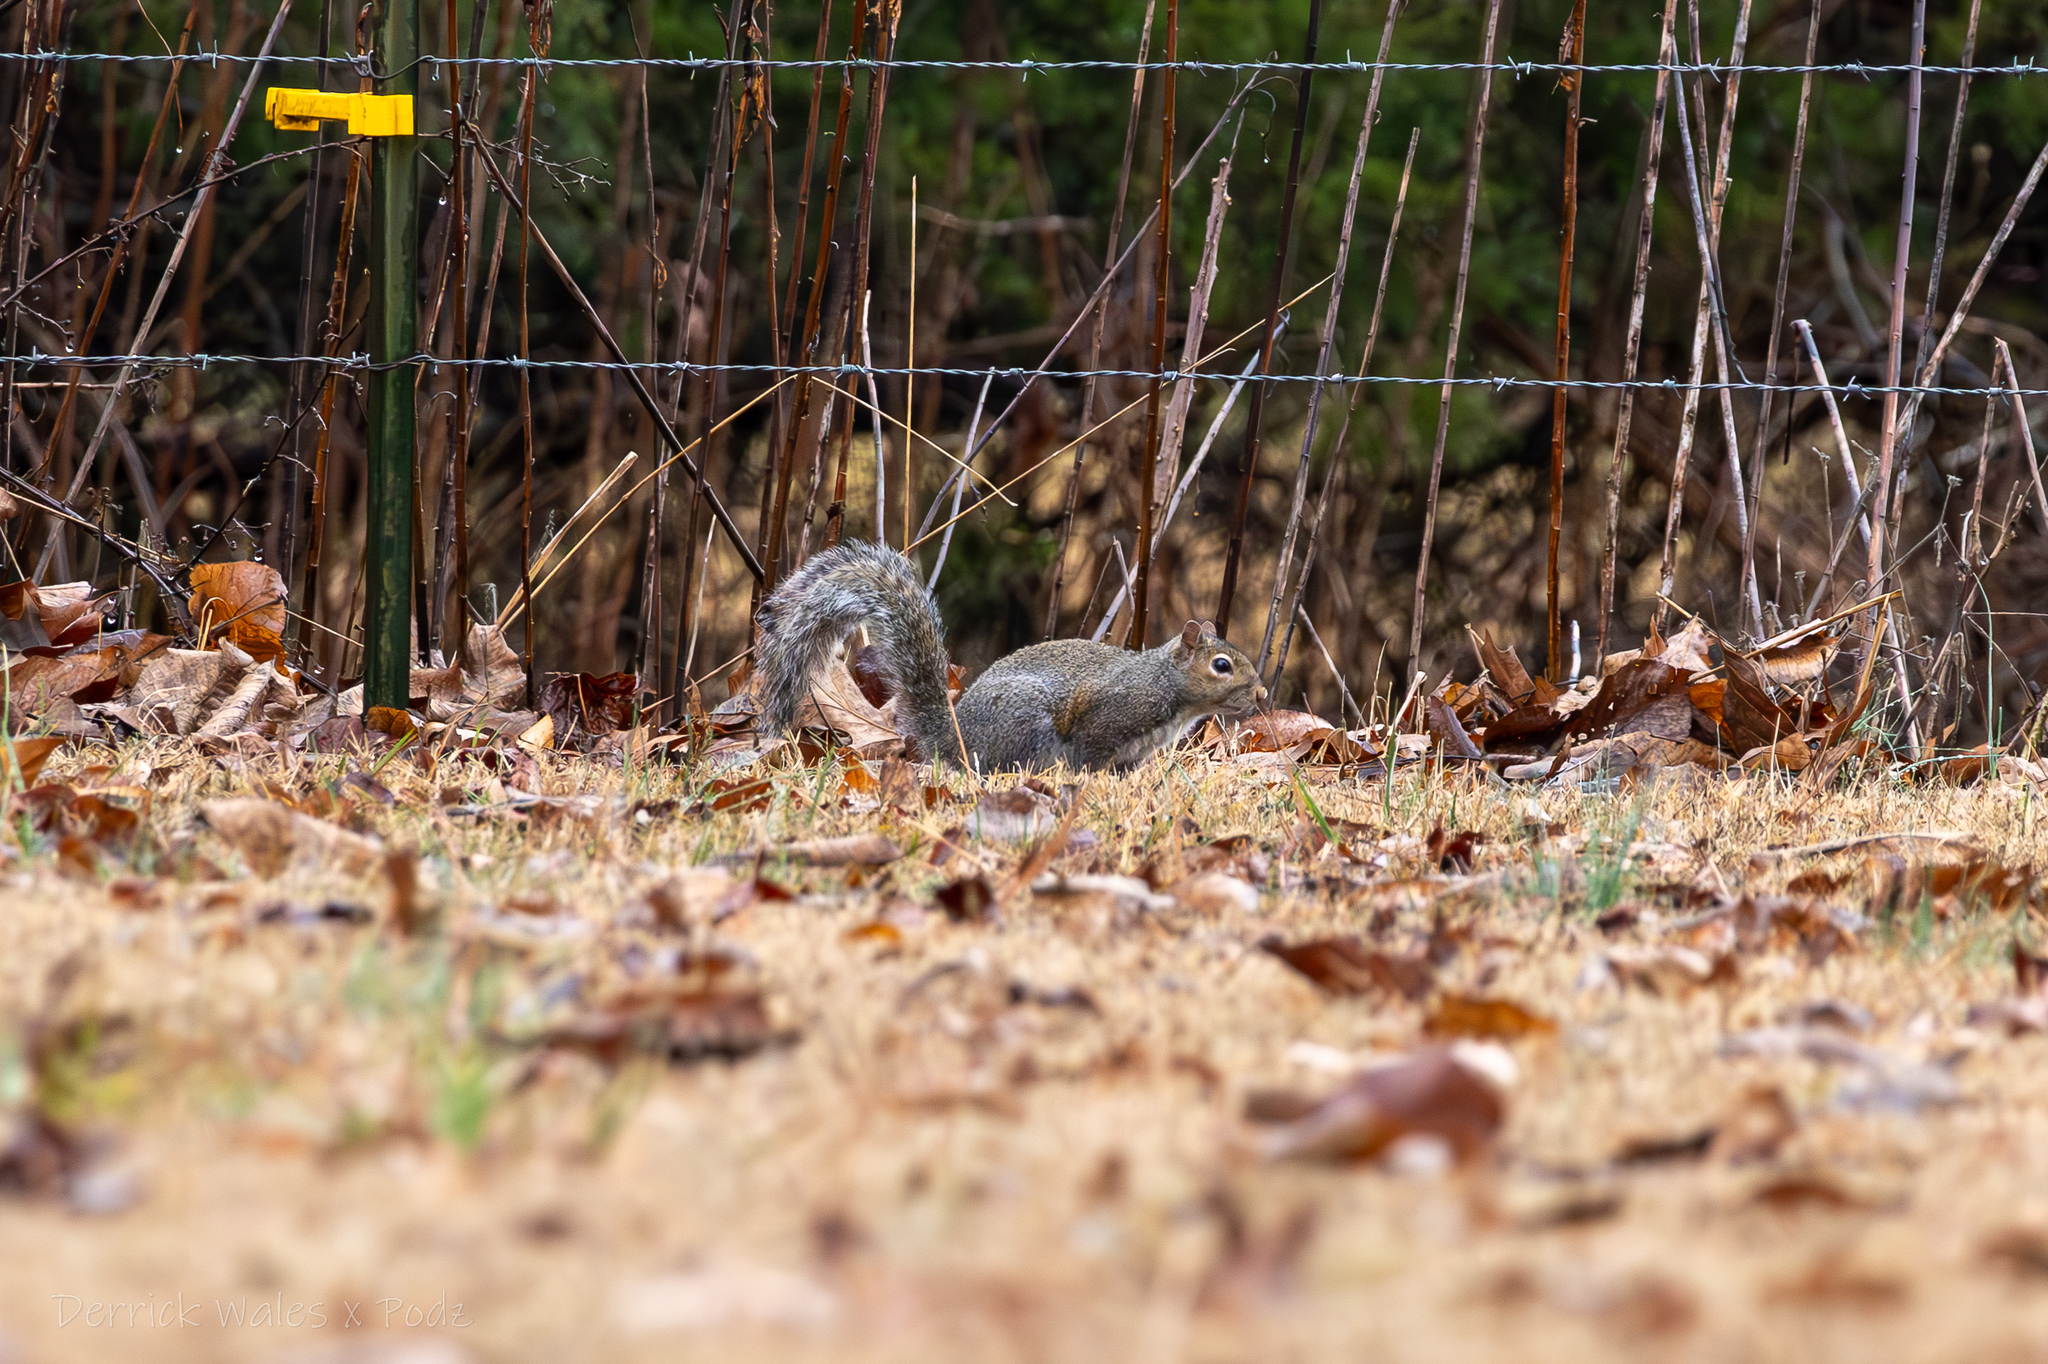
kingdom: Animalia
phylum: Chordata
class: Mammalia
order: Rodentia
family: Sciuridae
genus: Sciurus
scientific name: Sciurus carolinensis
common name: Eastern gray squirrel
